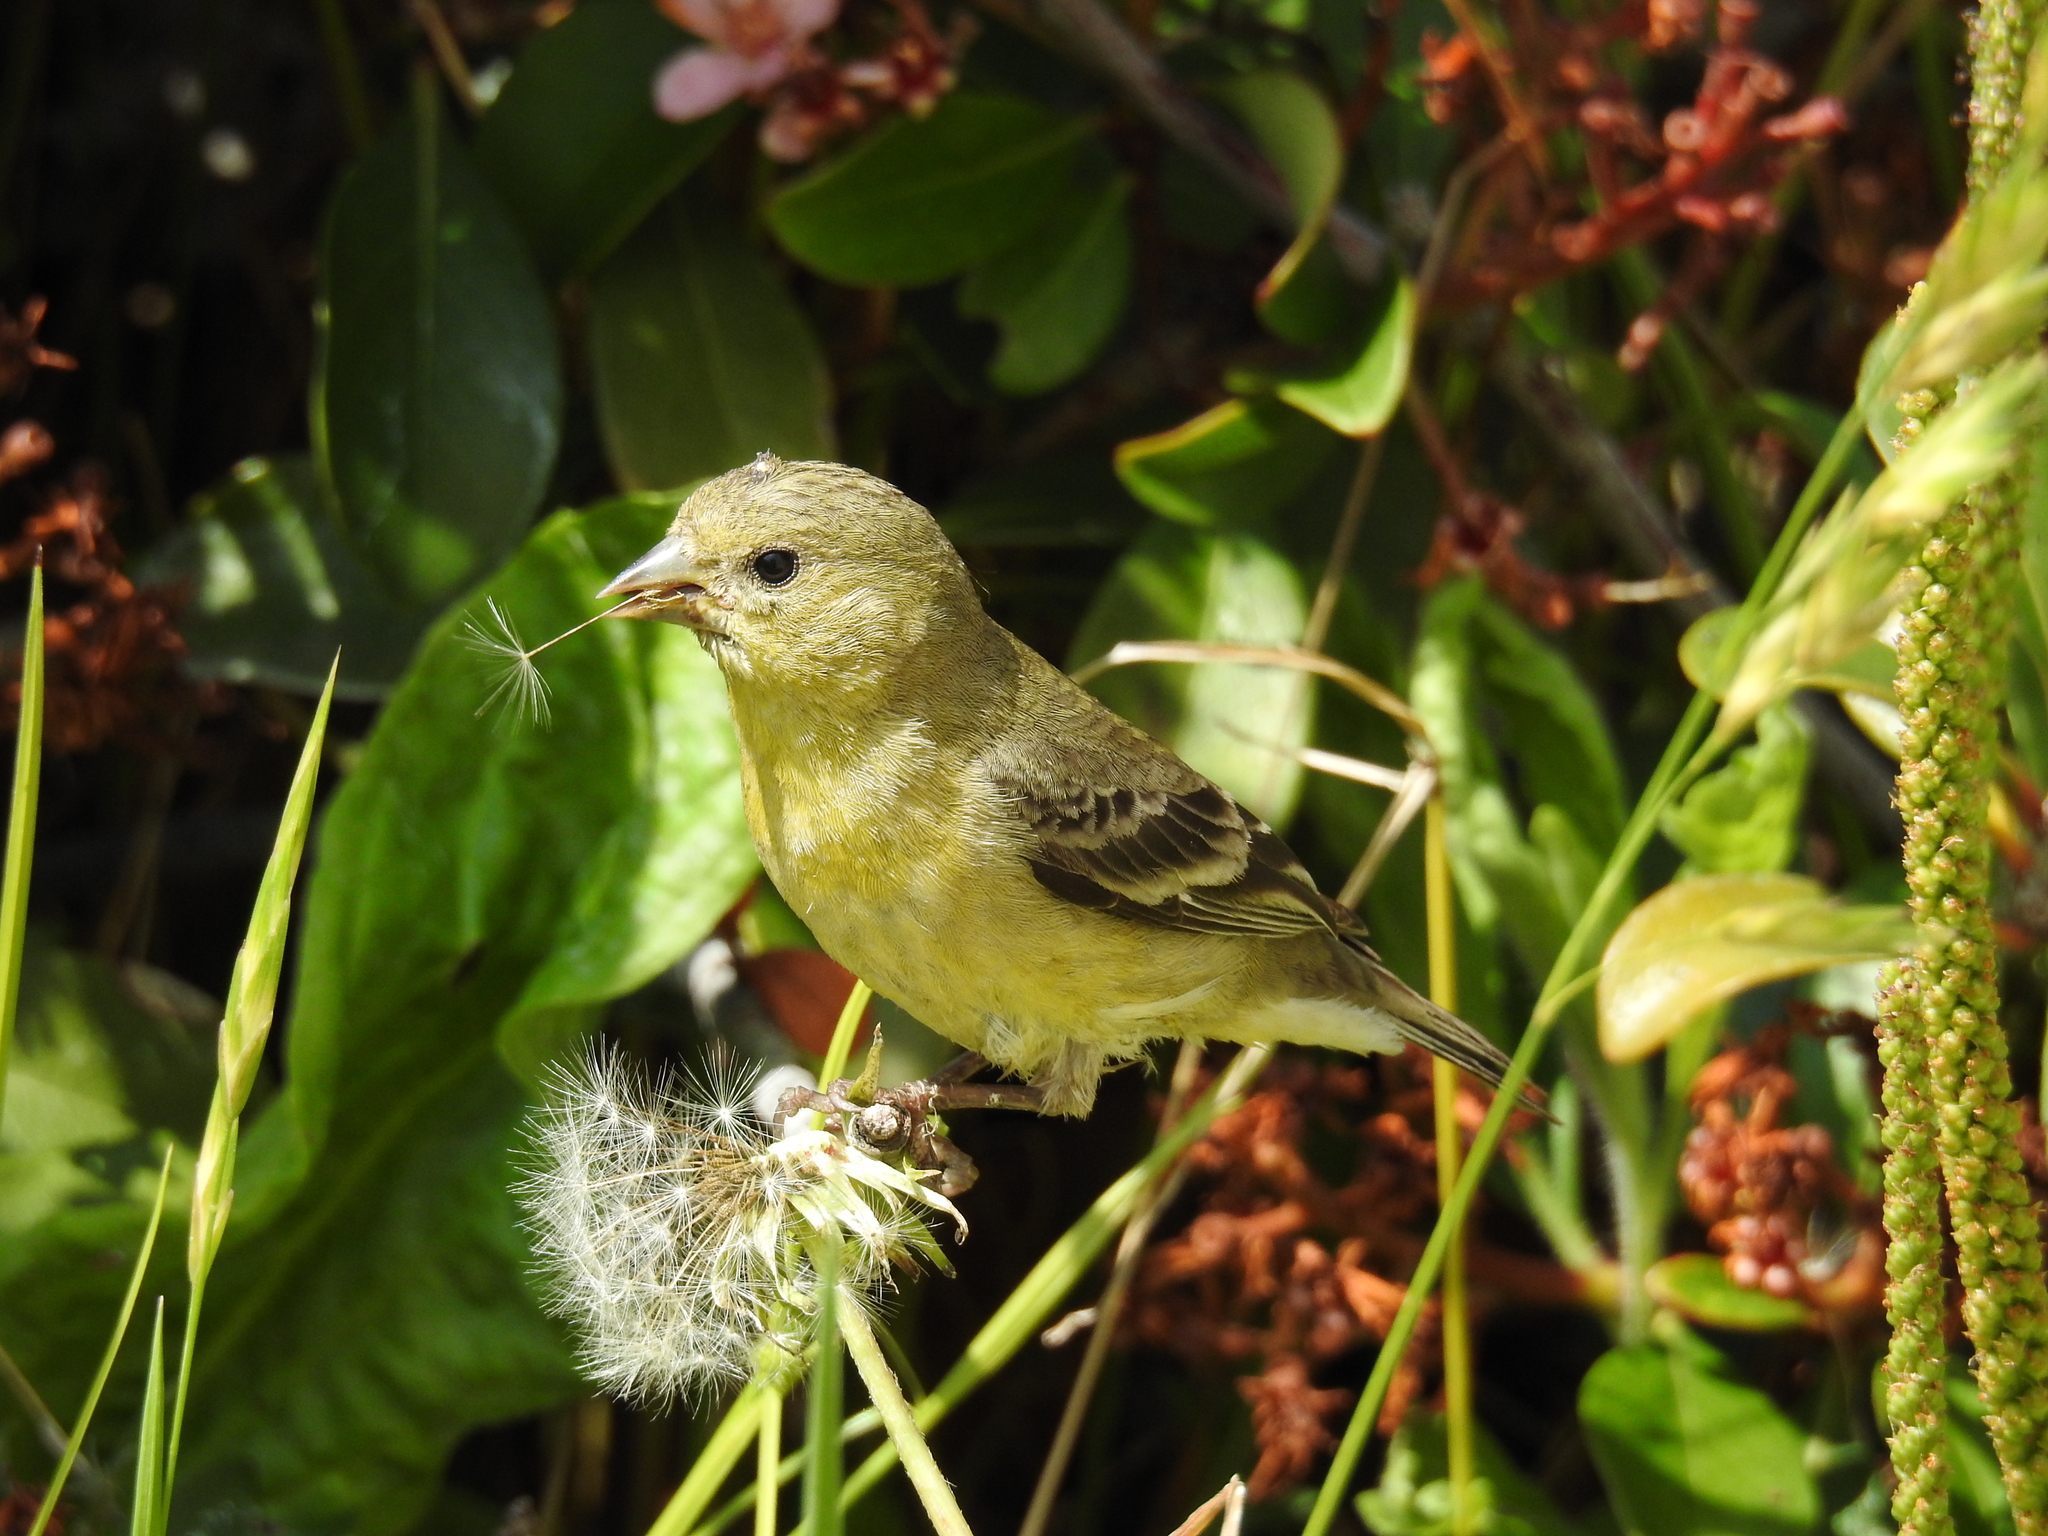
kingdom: Animalia
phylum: Chordata
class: Aves
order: Passeriformes
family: Fringillidae
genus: Spinus
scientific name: Spinus psaltria
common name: Lesser goldfinch
